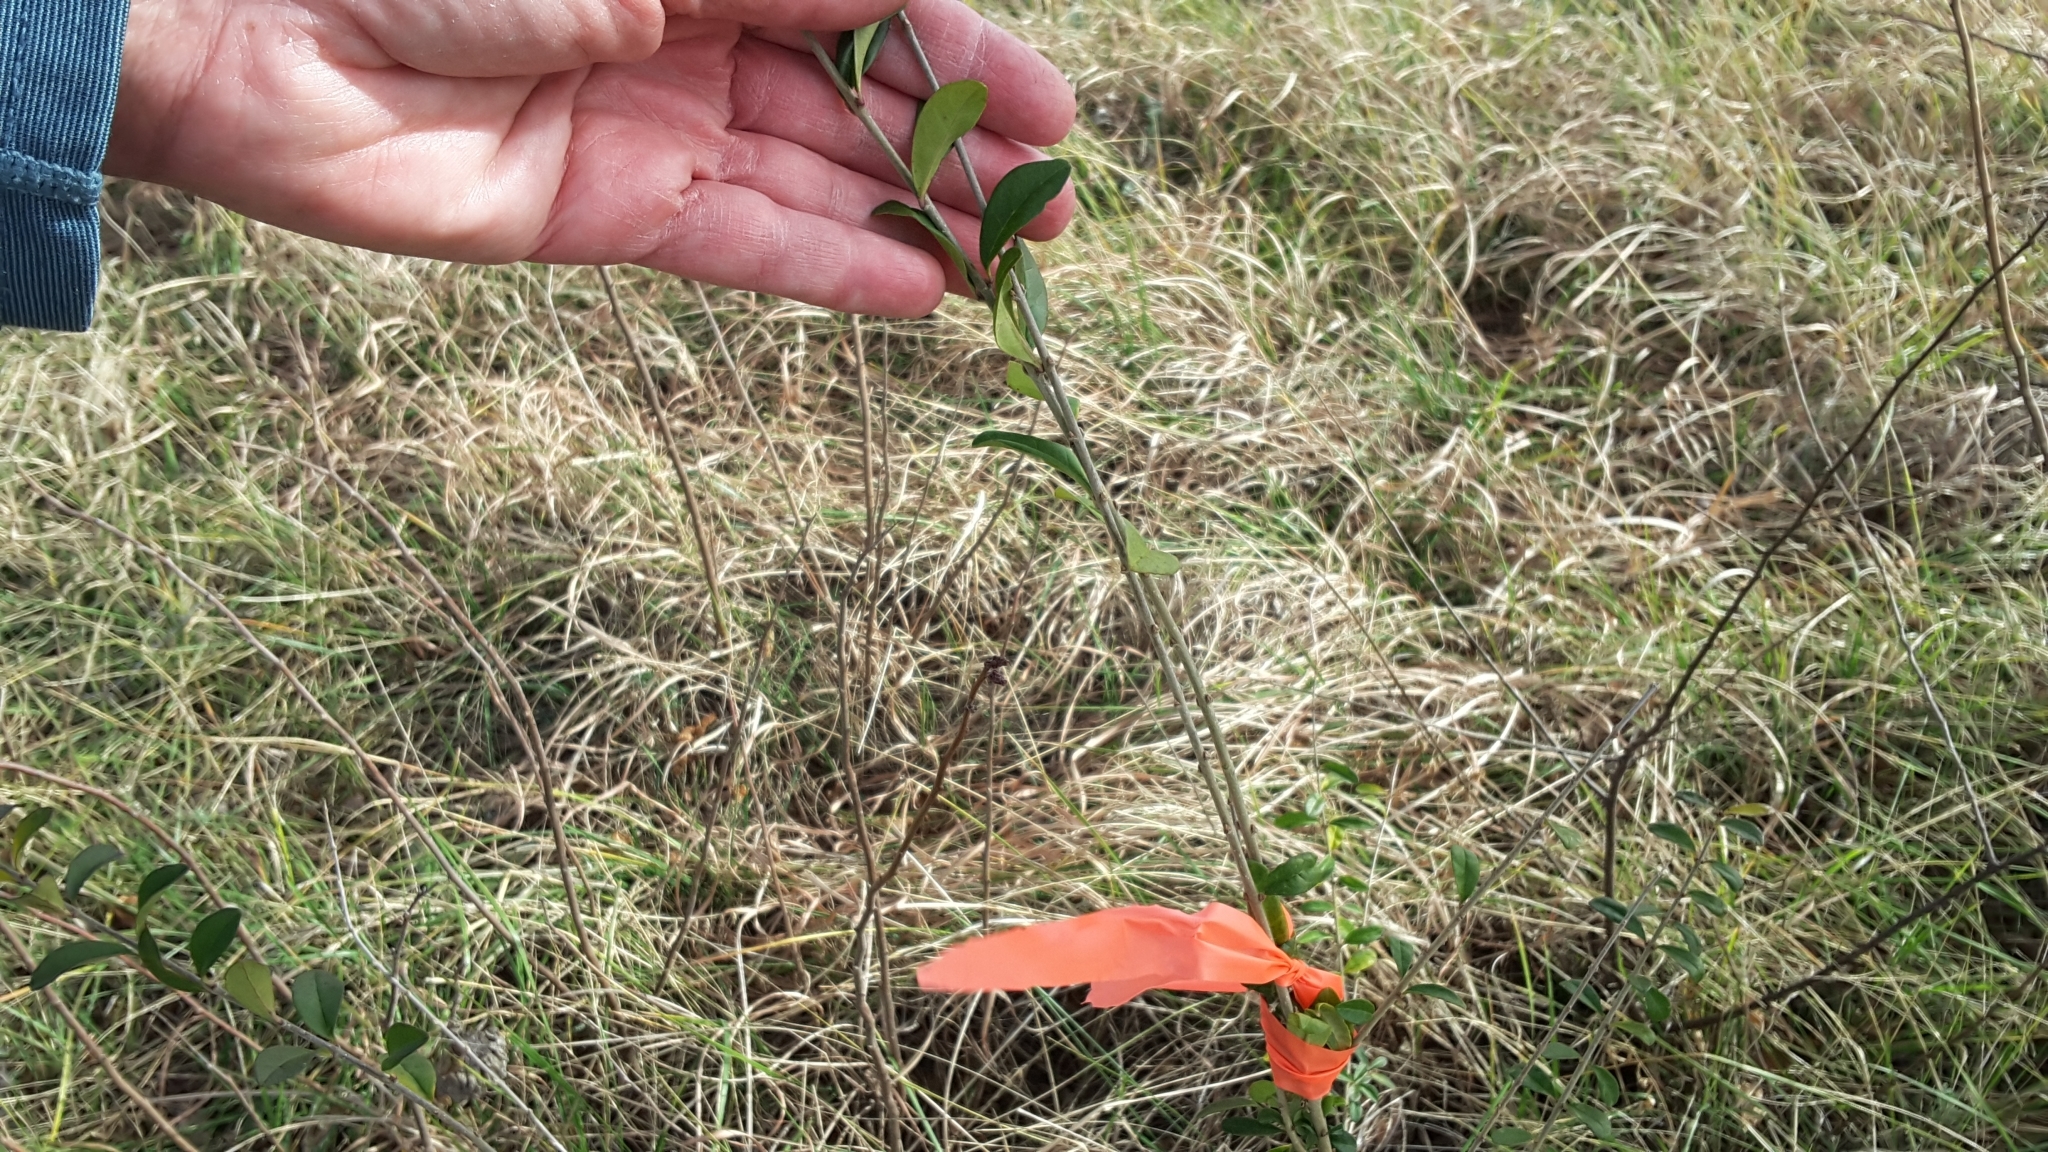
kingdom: Plantae
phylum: Tracheophyta
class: Magnoliopsida
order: Lamiales
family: Oleaceae
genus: Ligustrum
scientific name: Ligustrum quihoui
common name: Waxyleaf privet
